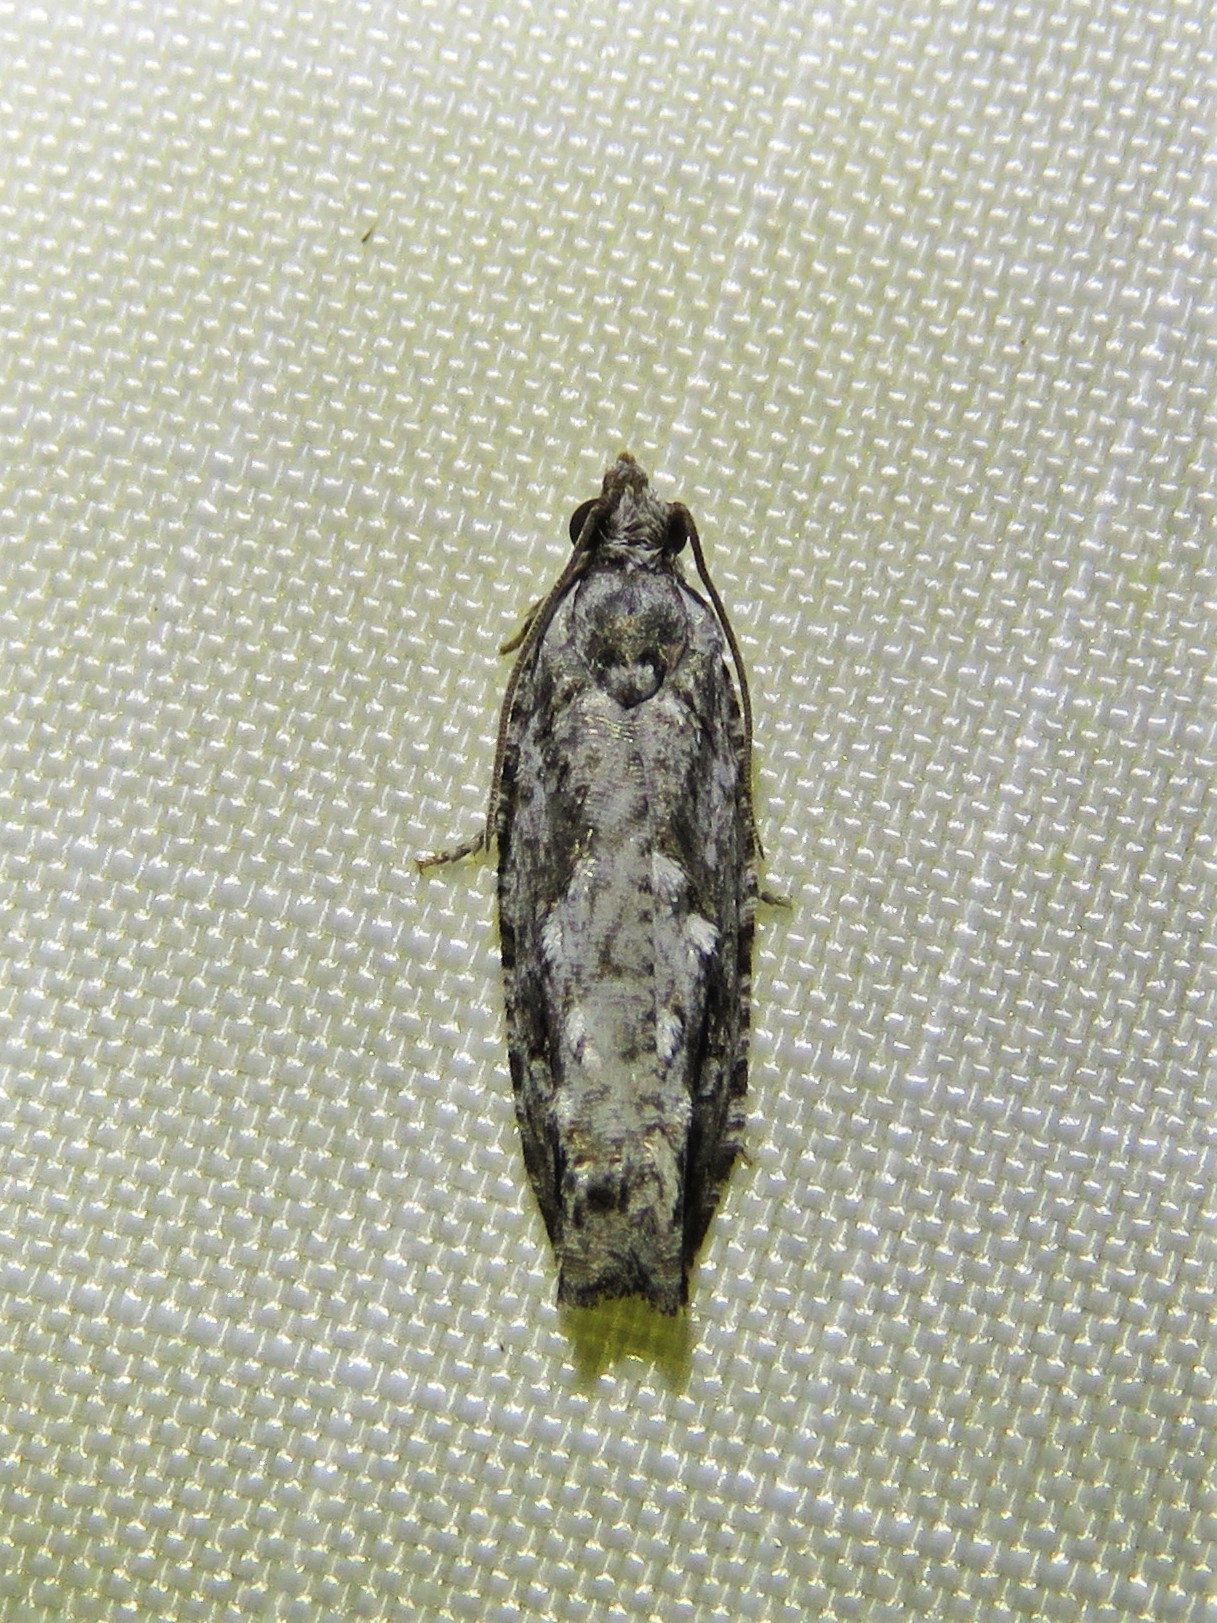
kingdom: Animalia
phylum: Arthropoda
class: Insecta
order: Lepidoptera
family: Tortricidae
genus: Gretchena
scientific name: Gretchena bolliana
